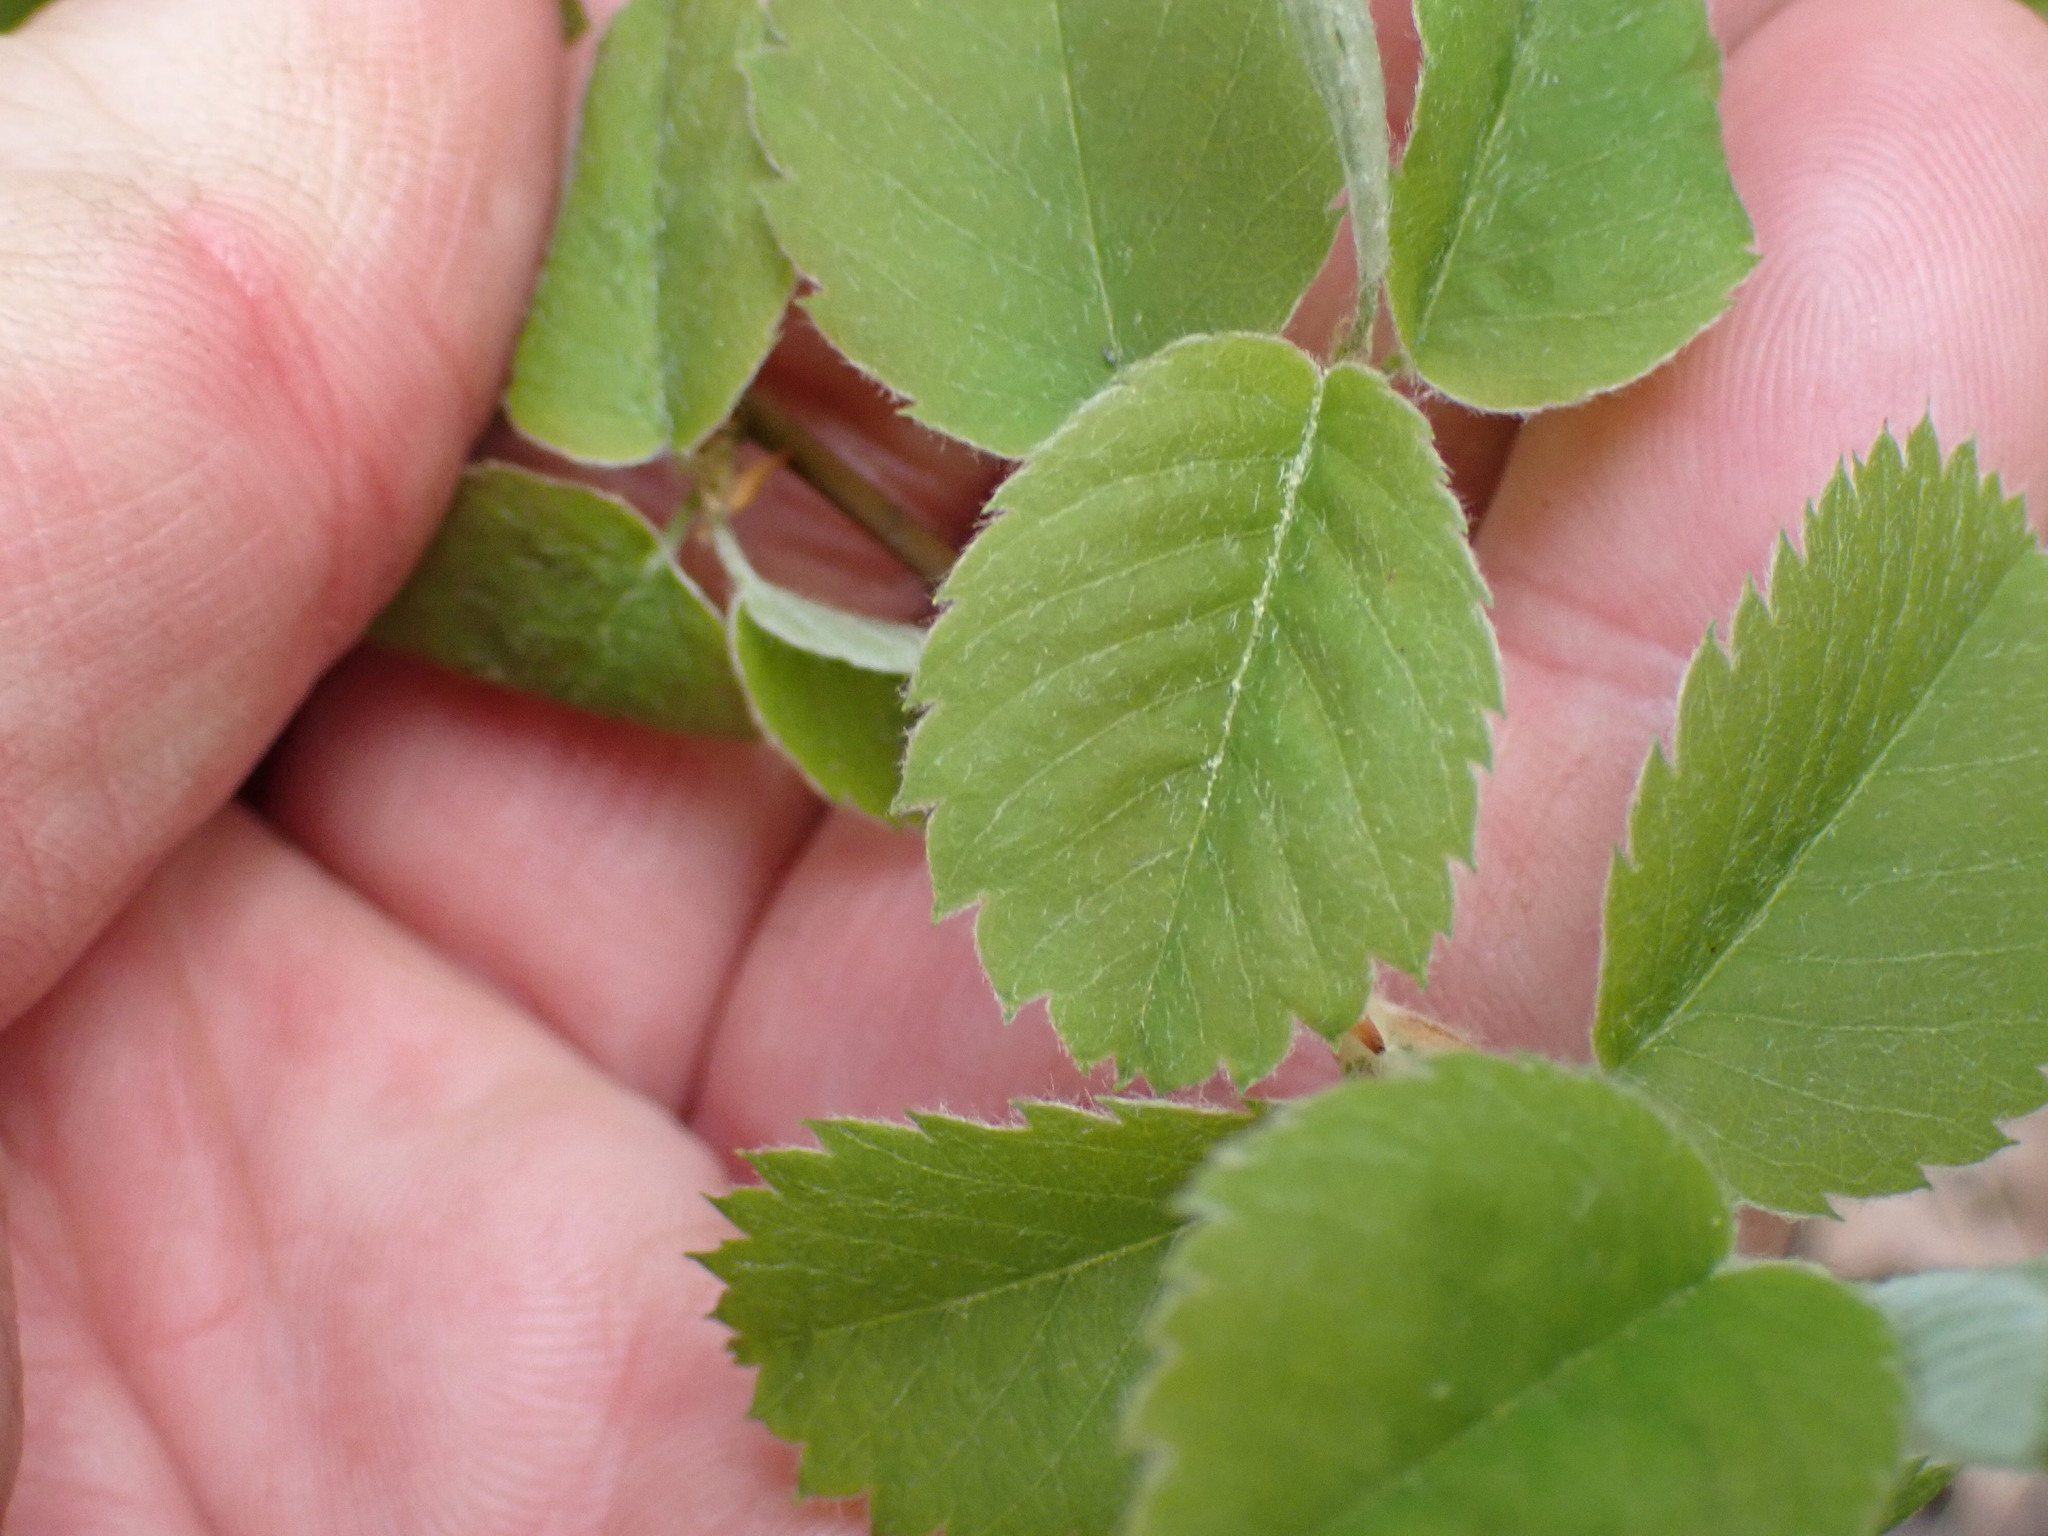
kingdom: Plantae
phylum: Tracheophyta
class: Magnoliopsida
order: Rosales
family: Rosaceae
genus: Amelanchier
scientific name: Amelanchier alnifolia
